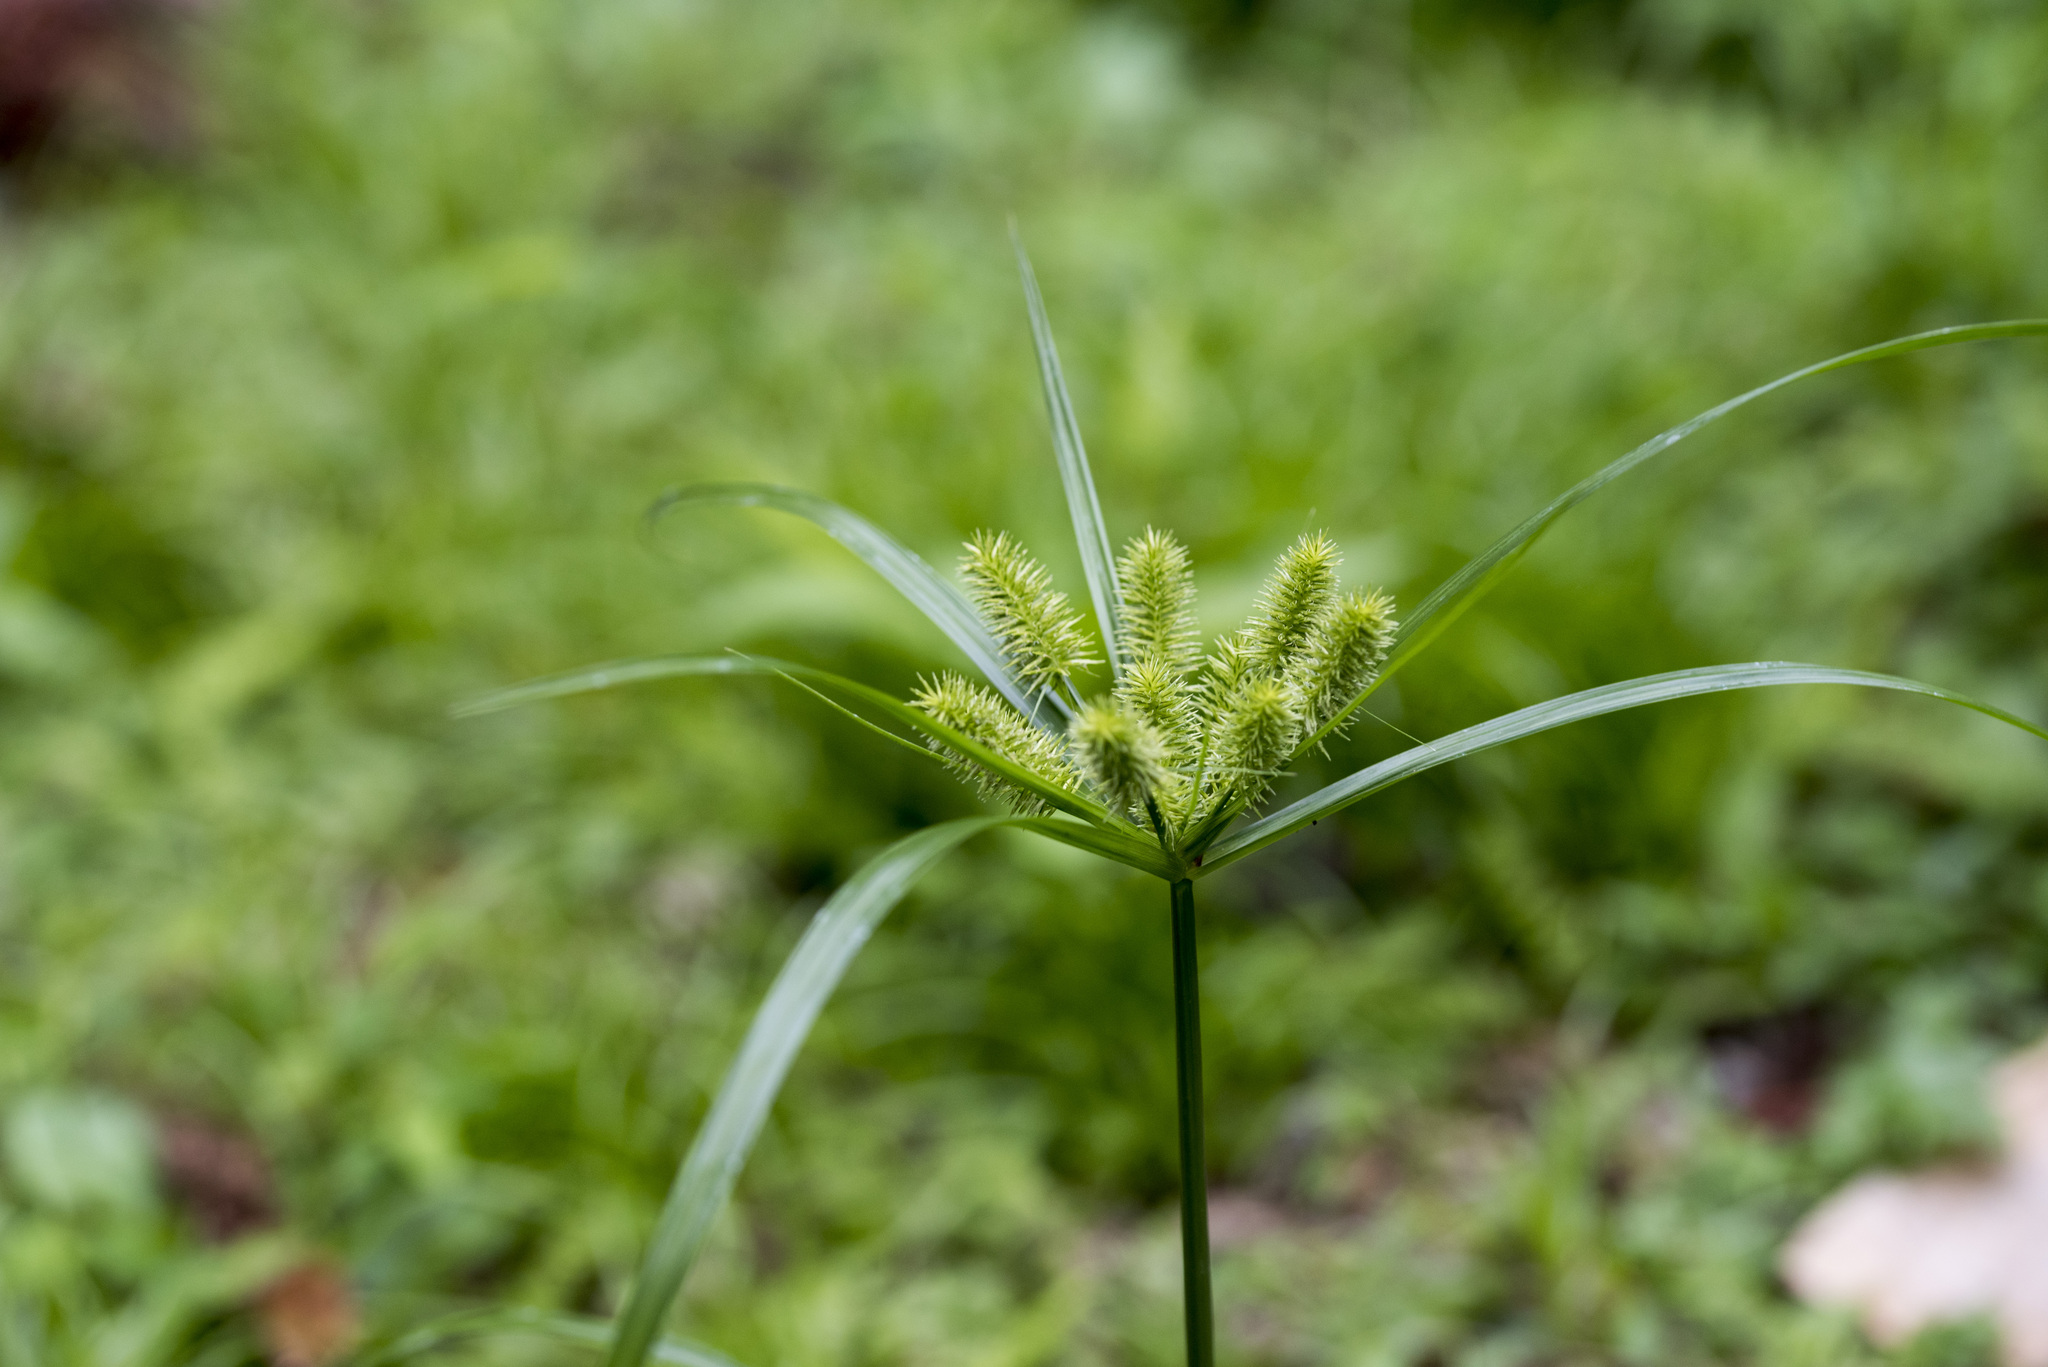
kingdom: Plantae
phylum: Tracheophyta
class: Liliopsida
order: Poales
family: Cyperaceae
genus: Cyperus
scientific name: Cyperus cyperoides
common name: Pacific island flat sedge
